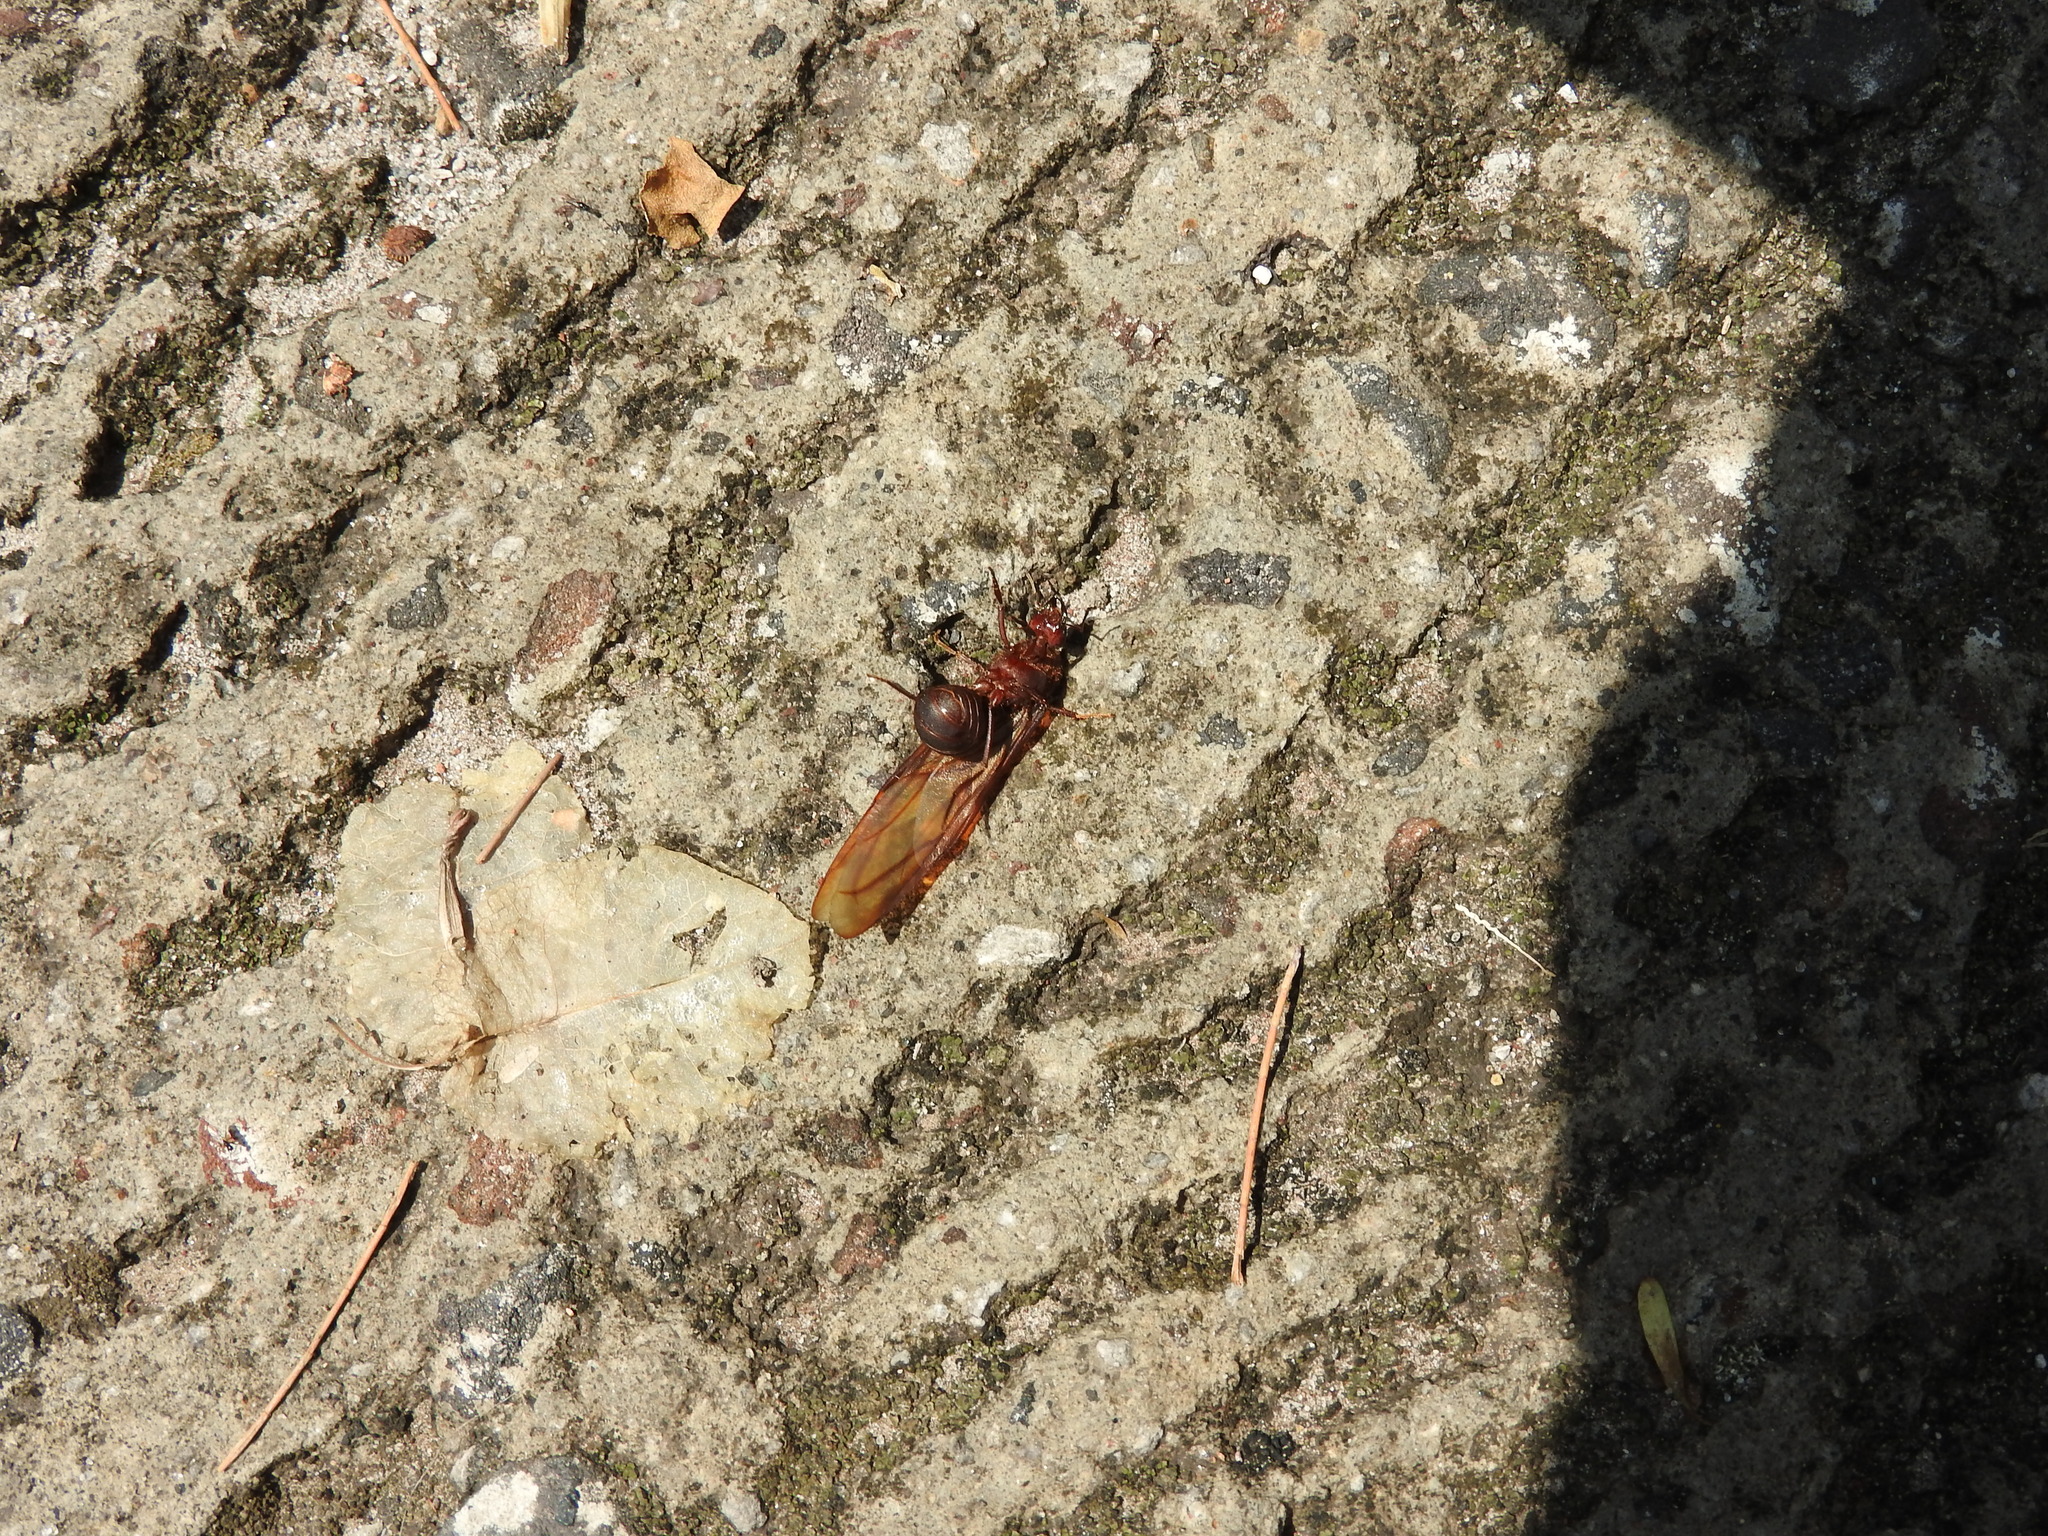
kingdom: Animalia
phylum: Arthropoda
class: Insecta
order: Hymenoptera
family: Formicidae
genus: Atta
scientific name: Atta mexicana
